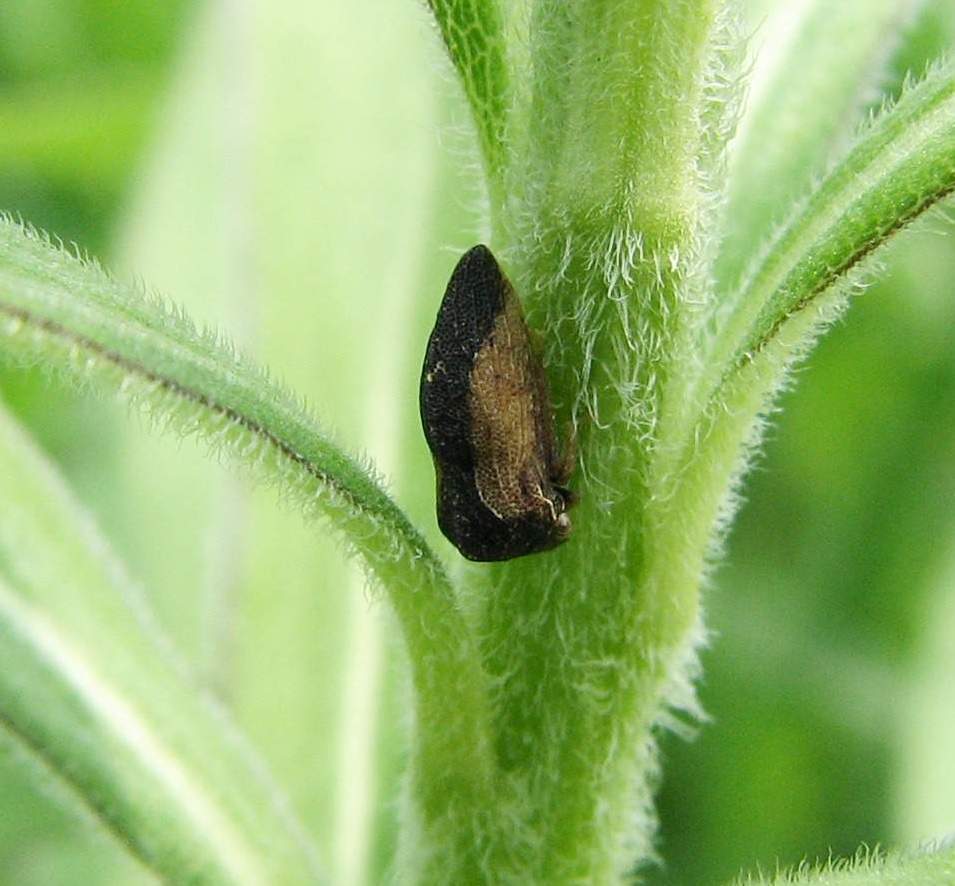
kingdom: Animalia
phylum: Arthropoda
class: Insecta
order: Hemiptera
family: Membracidae
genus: Publilia
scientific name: Publilia concava
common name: Aster treehopper
